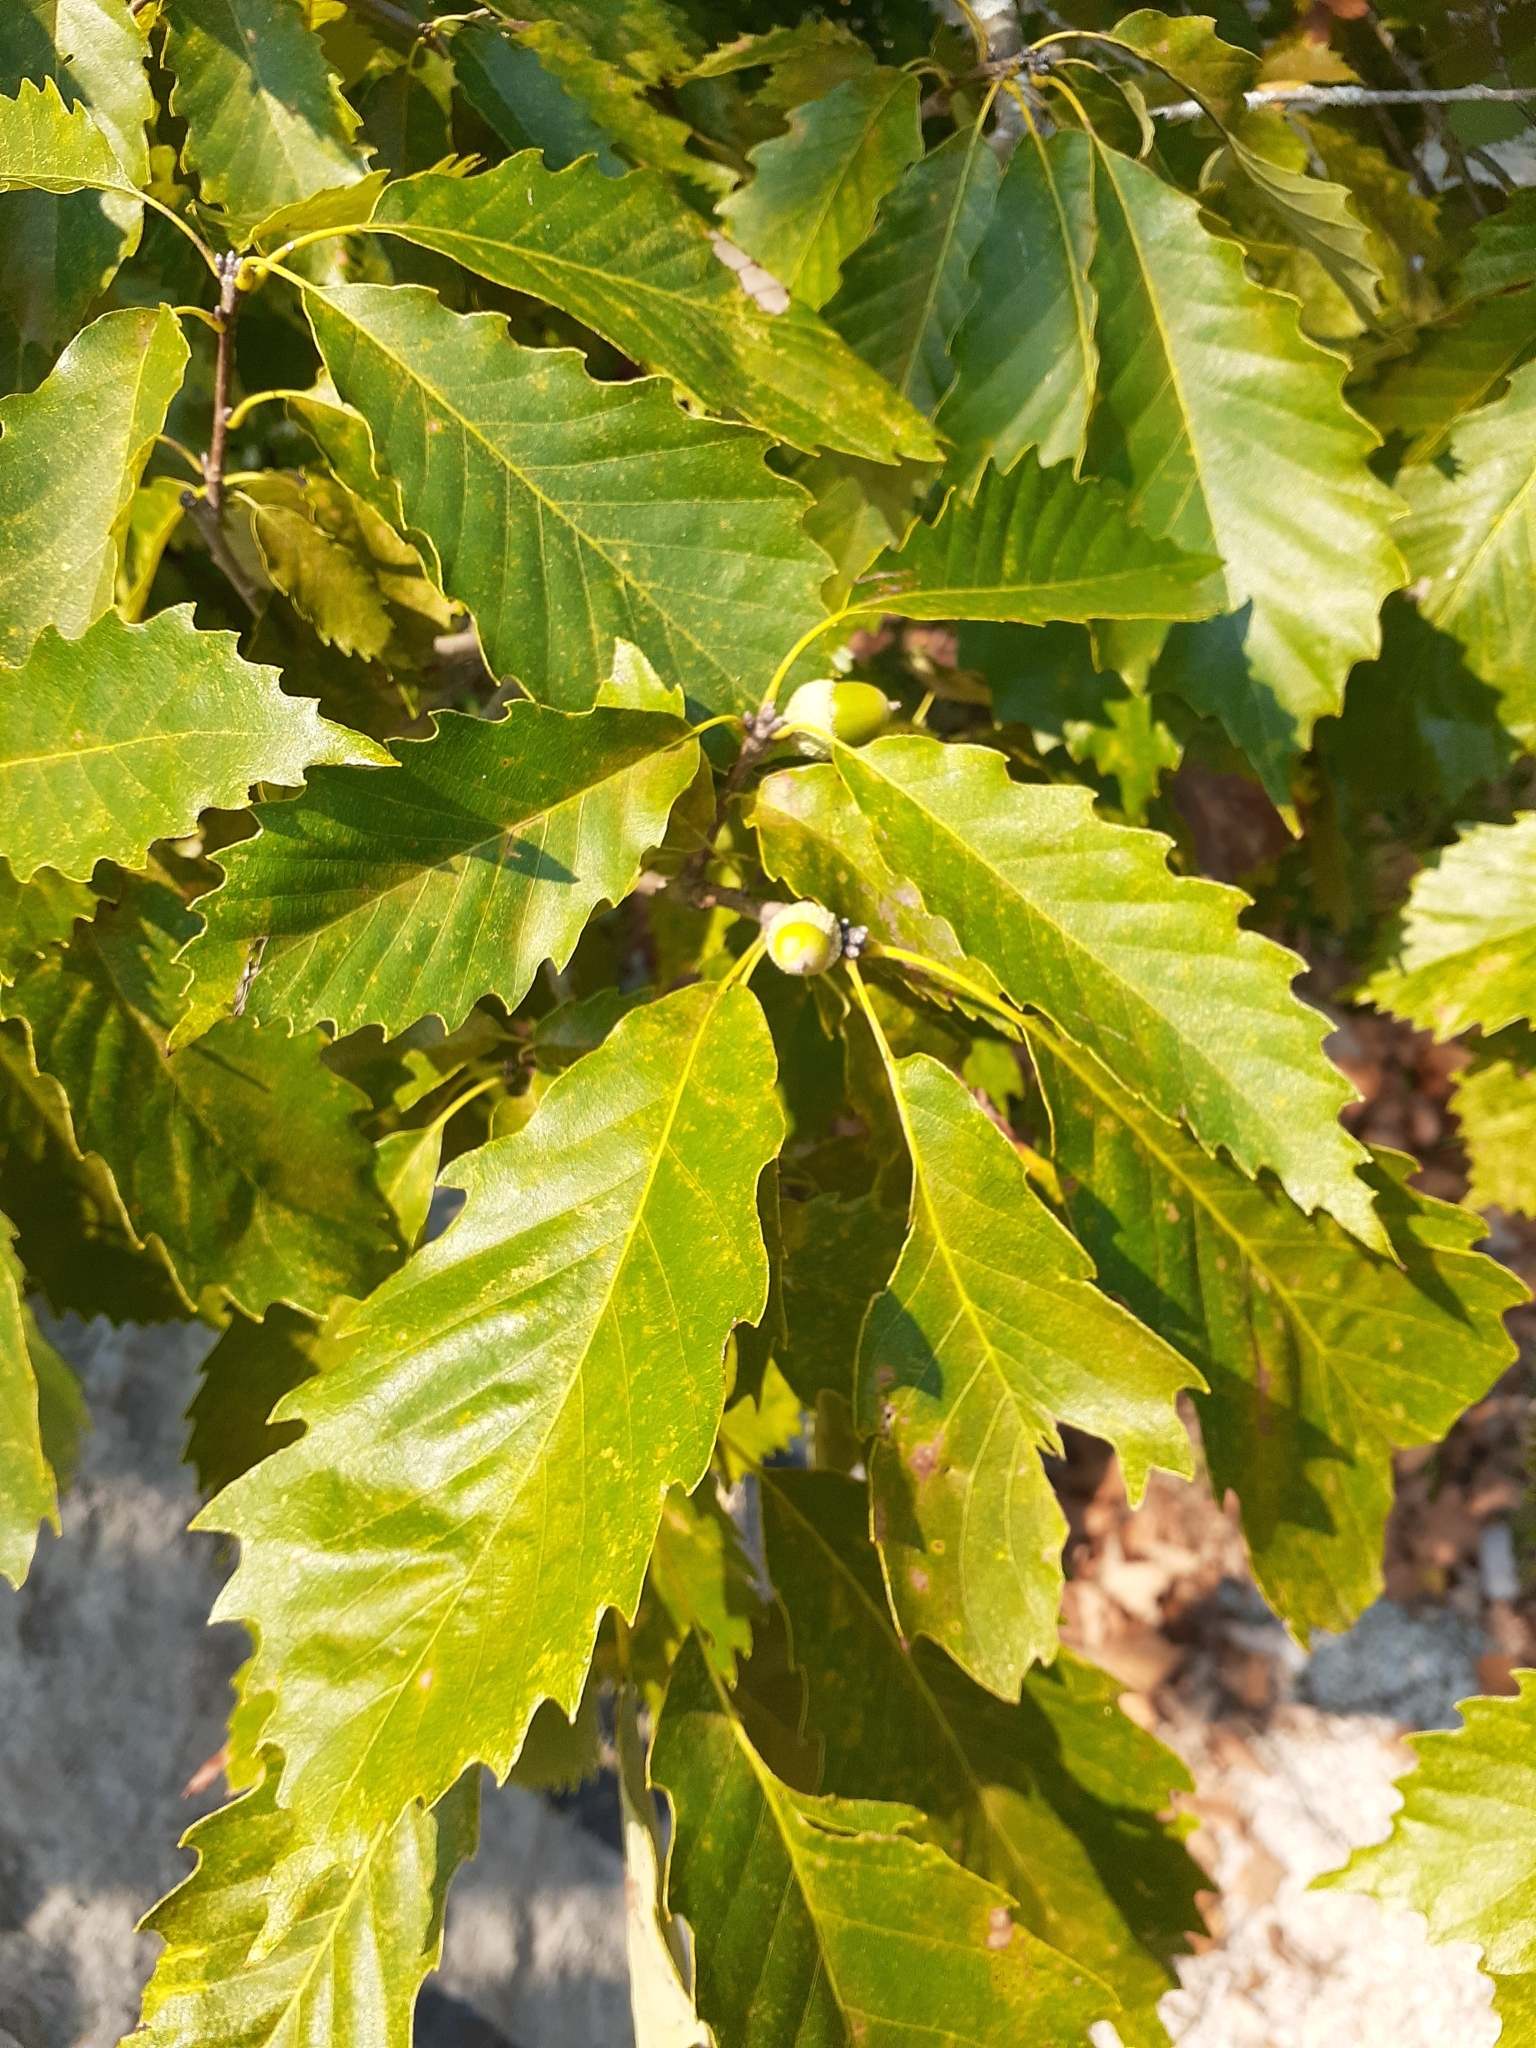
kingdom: Plantae
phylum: Tracheophyta
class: Magnoliopsida
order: Fagales
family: Fagaceae
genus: Quercus
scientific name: Quercus muehlenbergii
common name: Chinkapin oak
